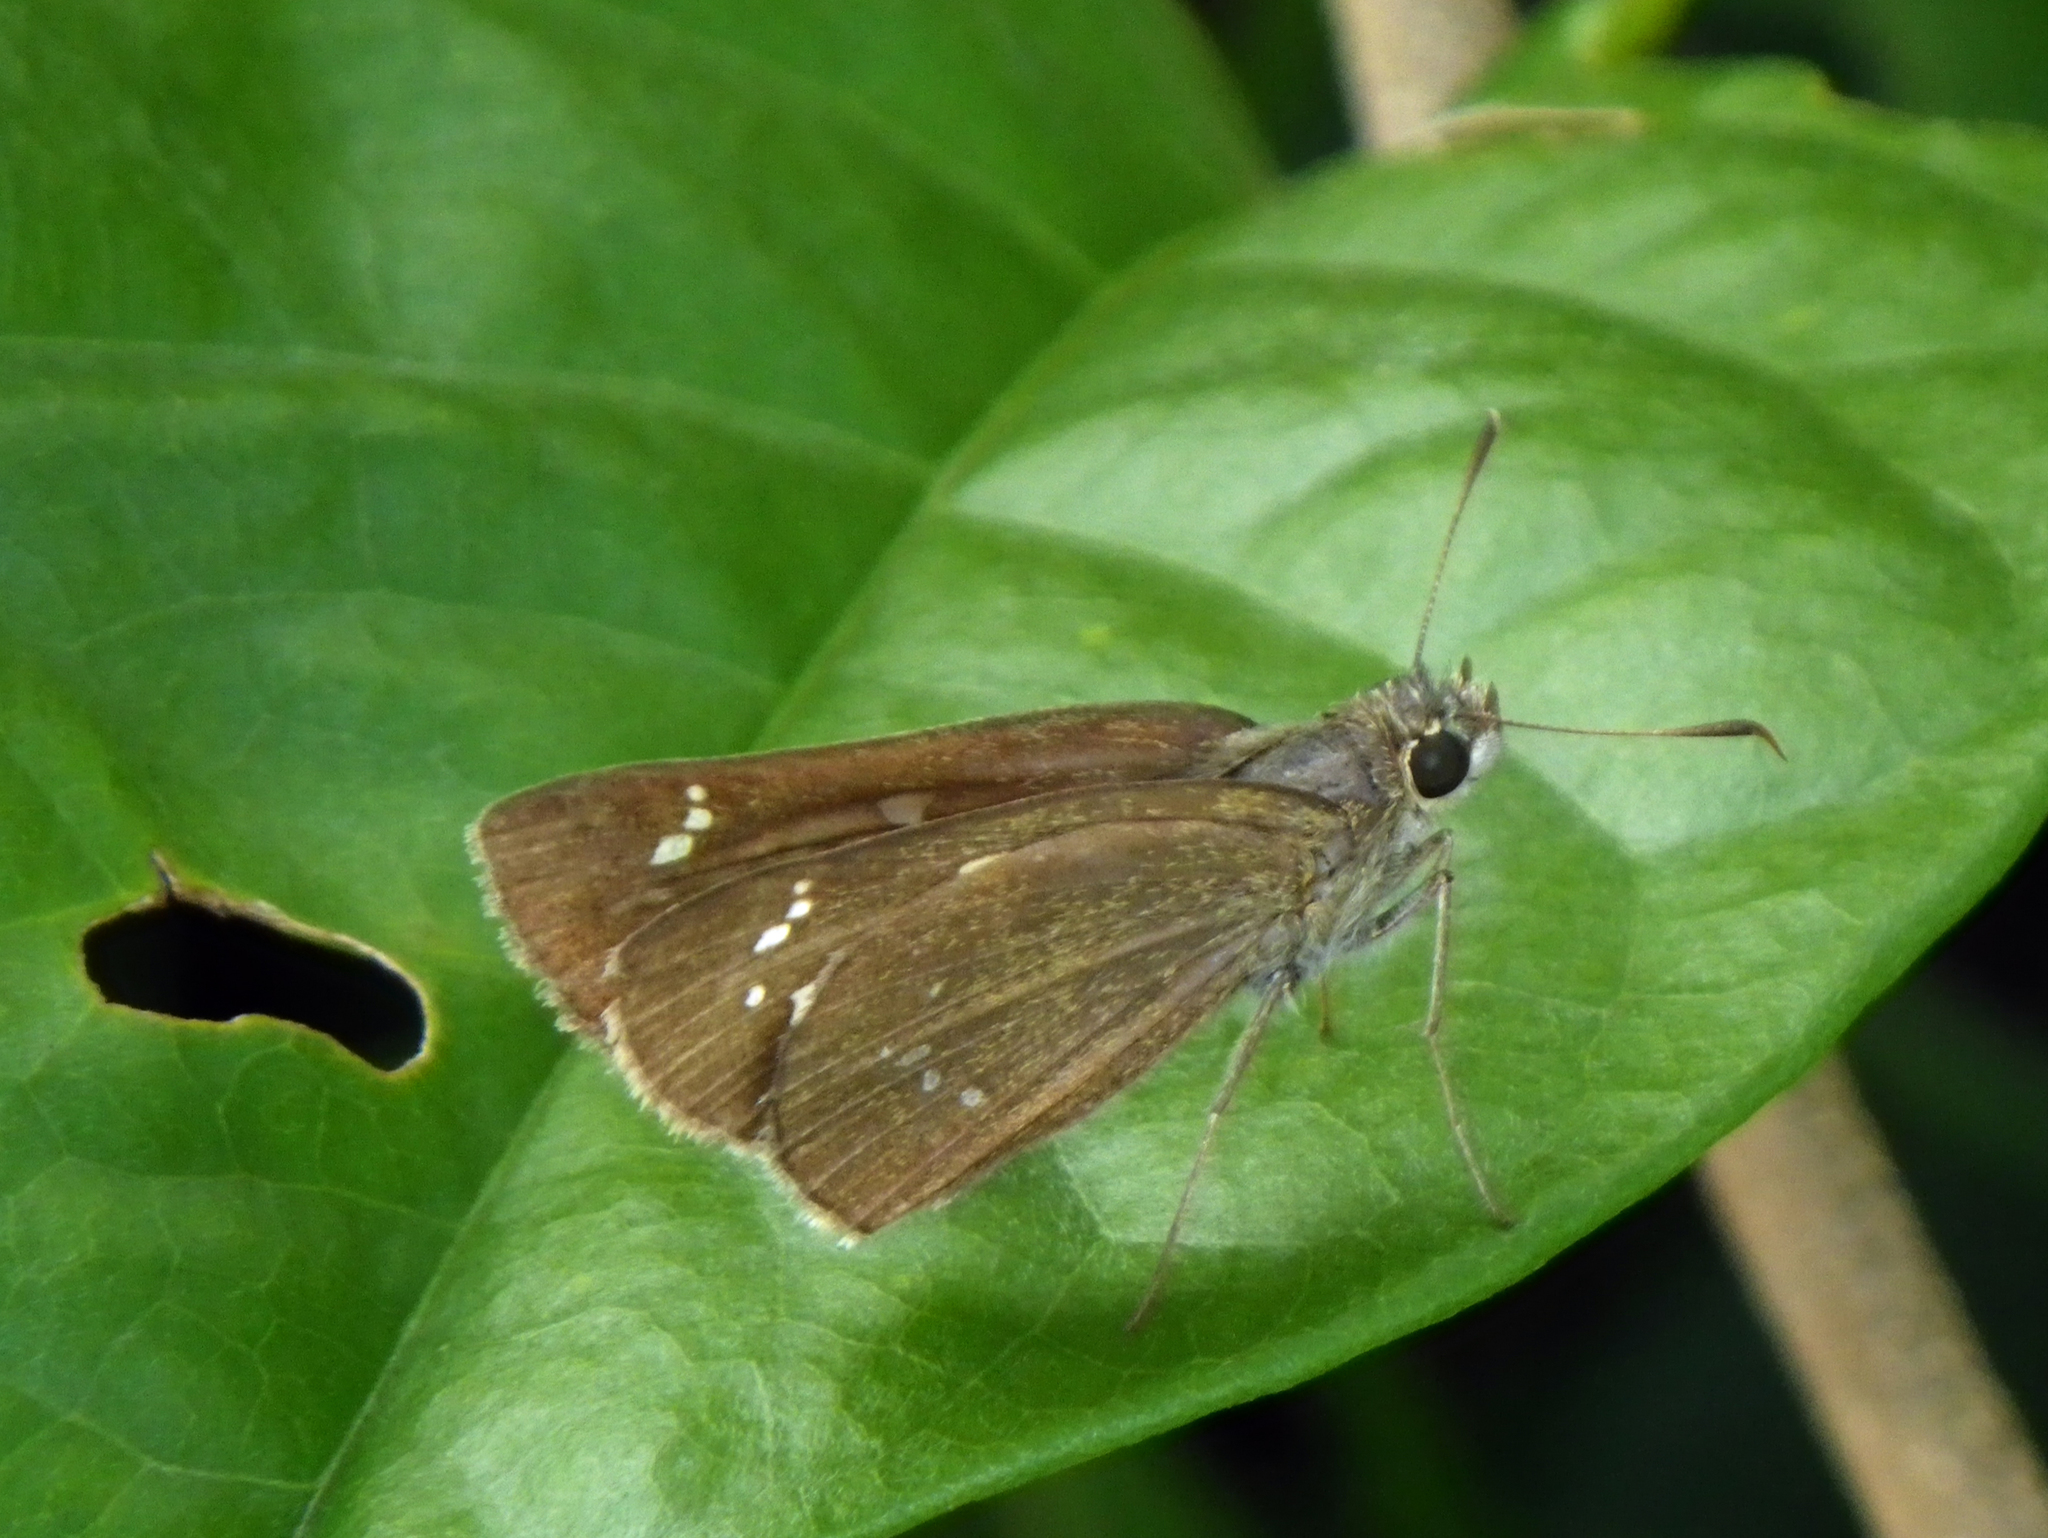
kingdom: Animalia
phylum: Arthropoda
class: Insecta
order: Lepidoptera
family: Hesperiidae
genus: Polytremis
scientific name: Polytremis lubricans
